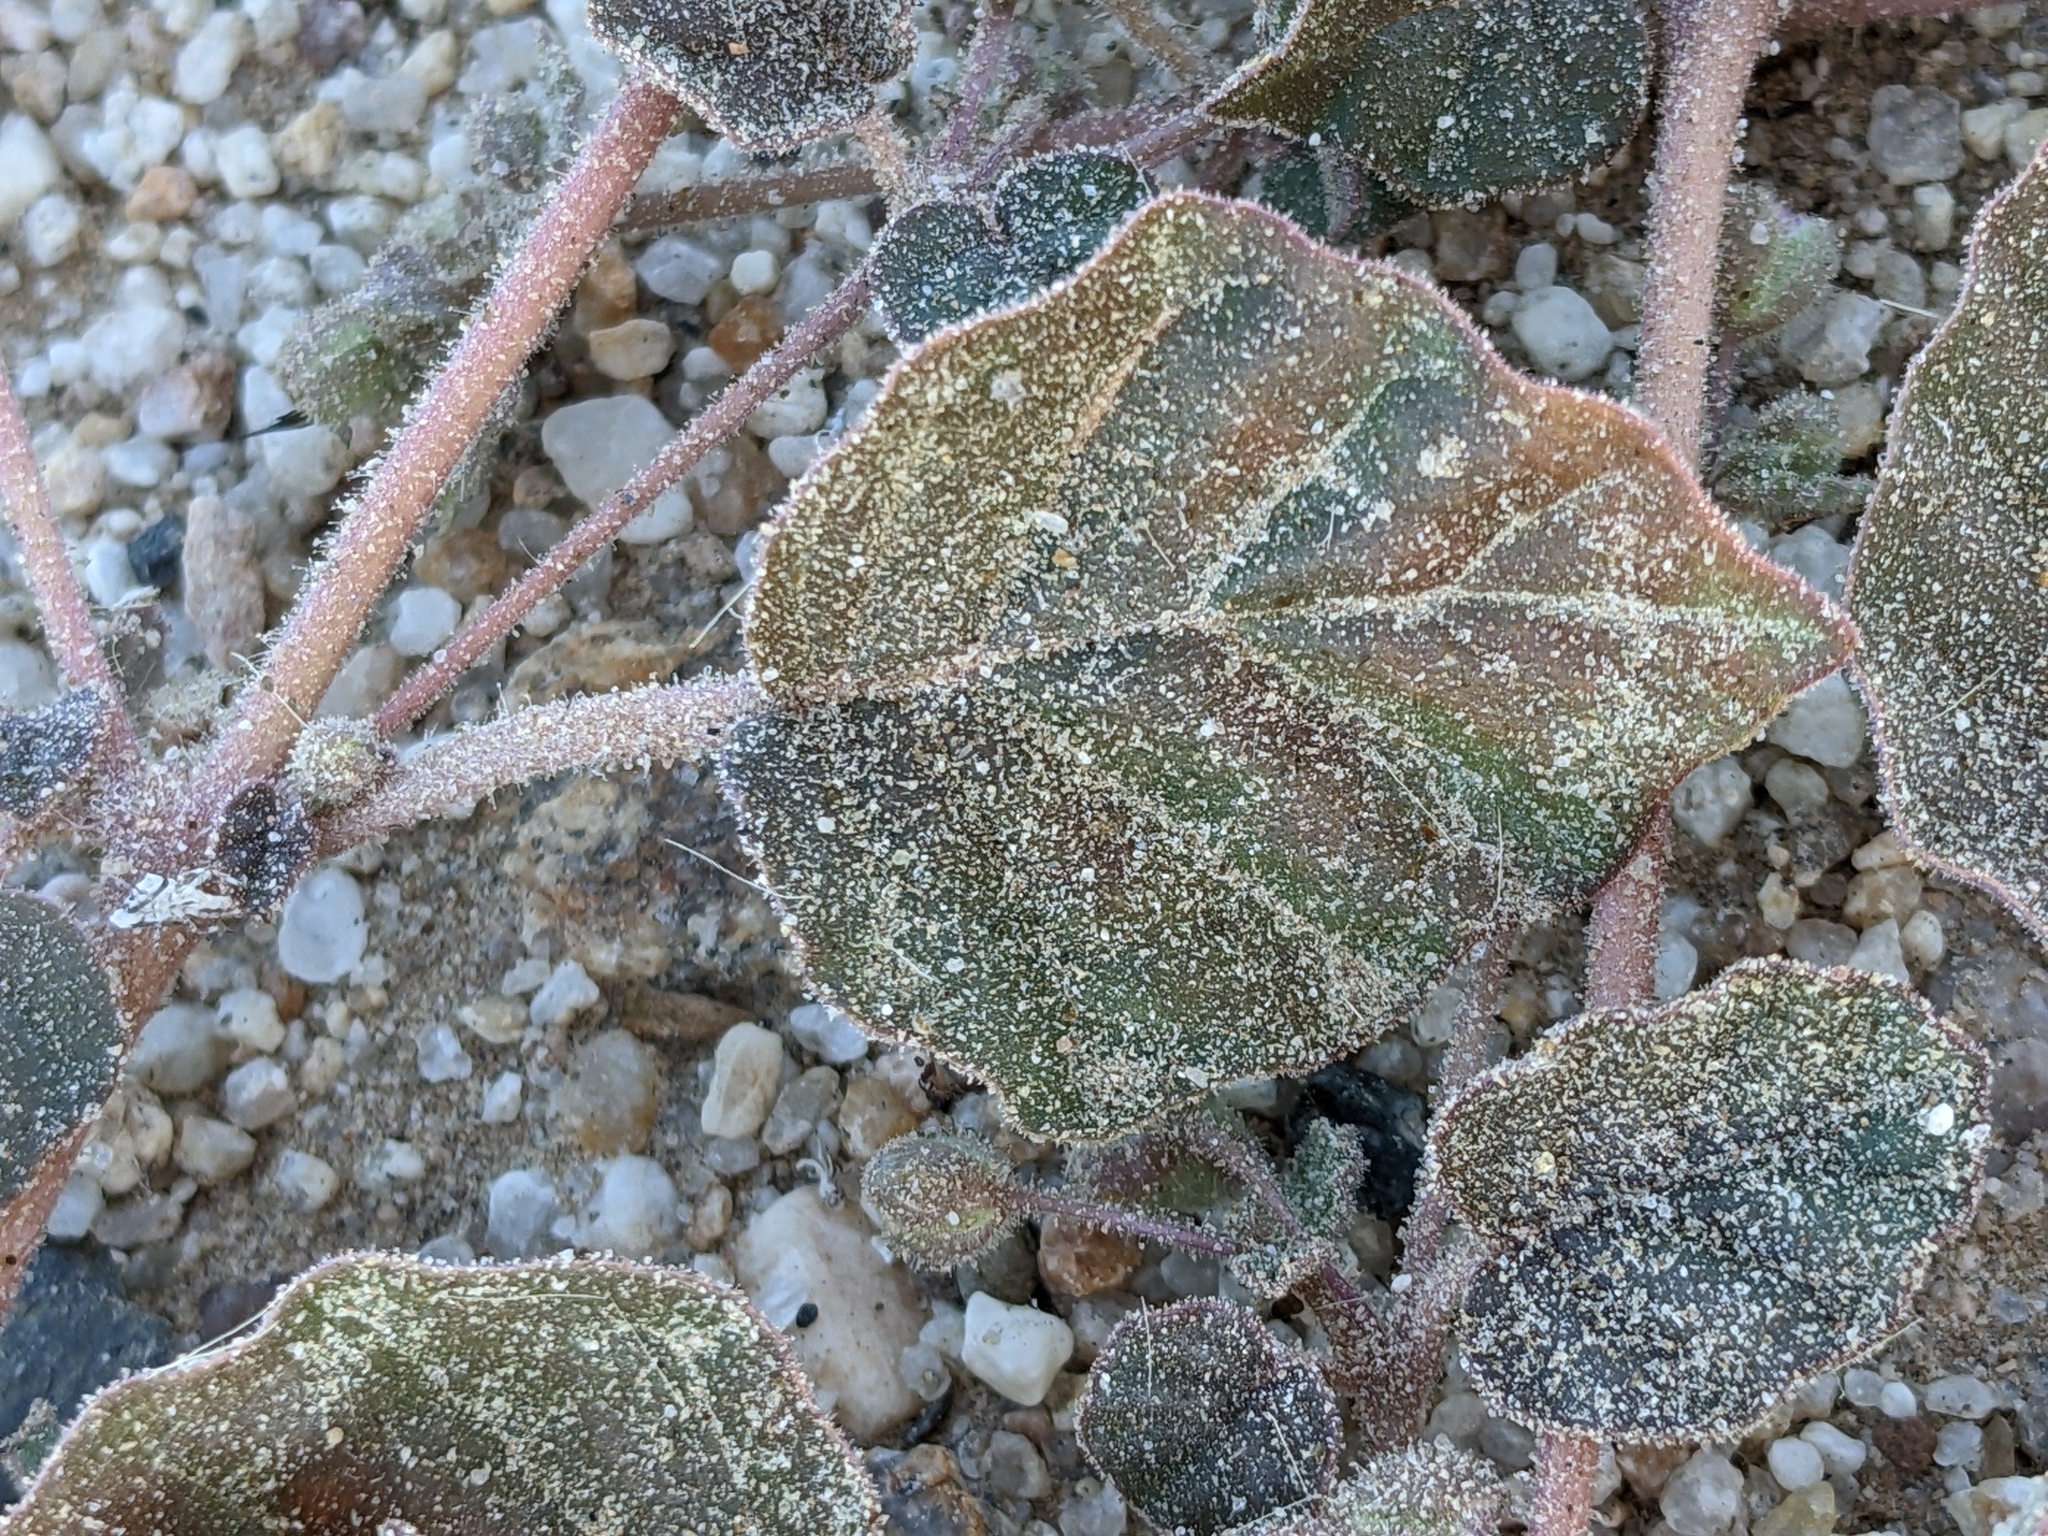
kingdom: Plantae
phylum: Tracheophyta
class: Magnoliopsida
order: Caryophyllales
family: Nyctaginaceae
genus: Allionia
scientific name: Allionia incarnata
